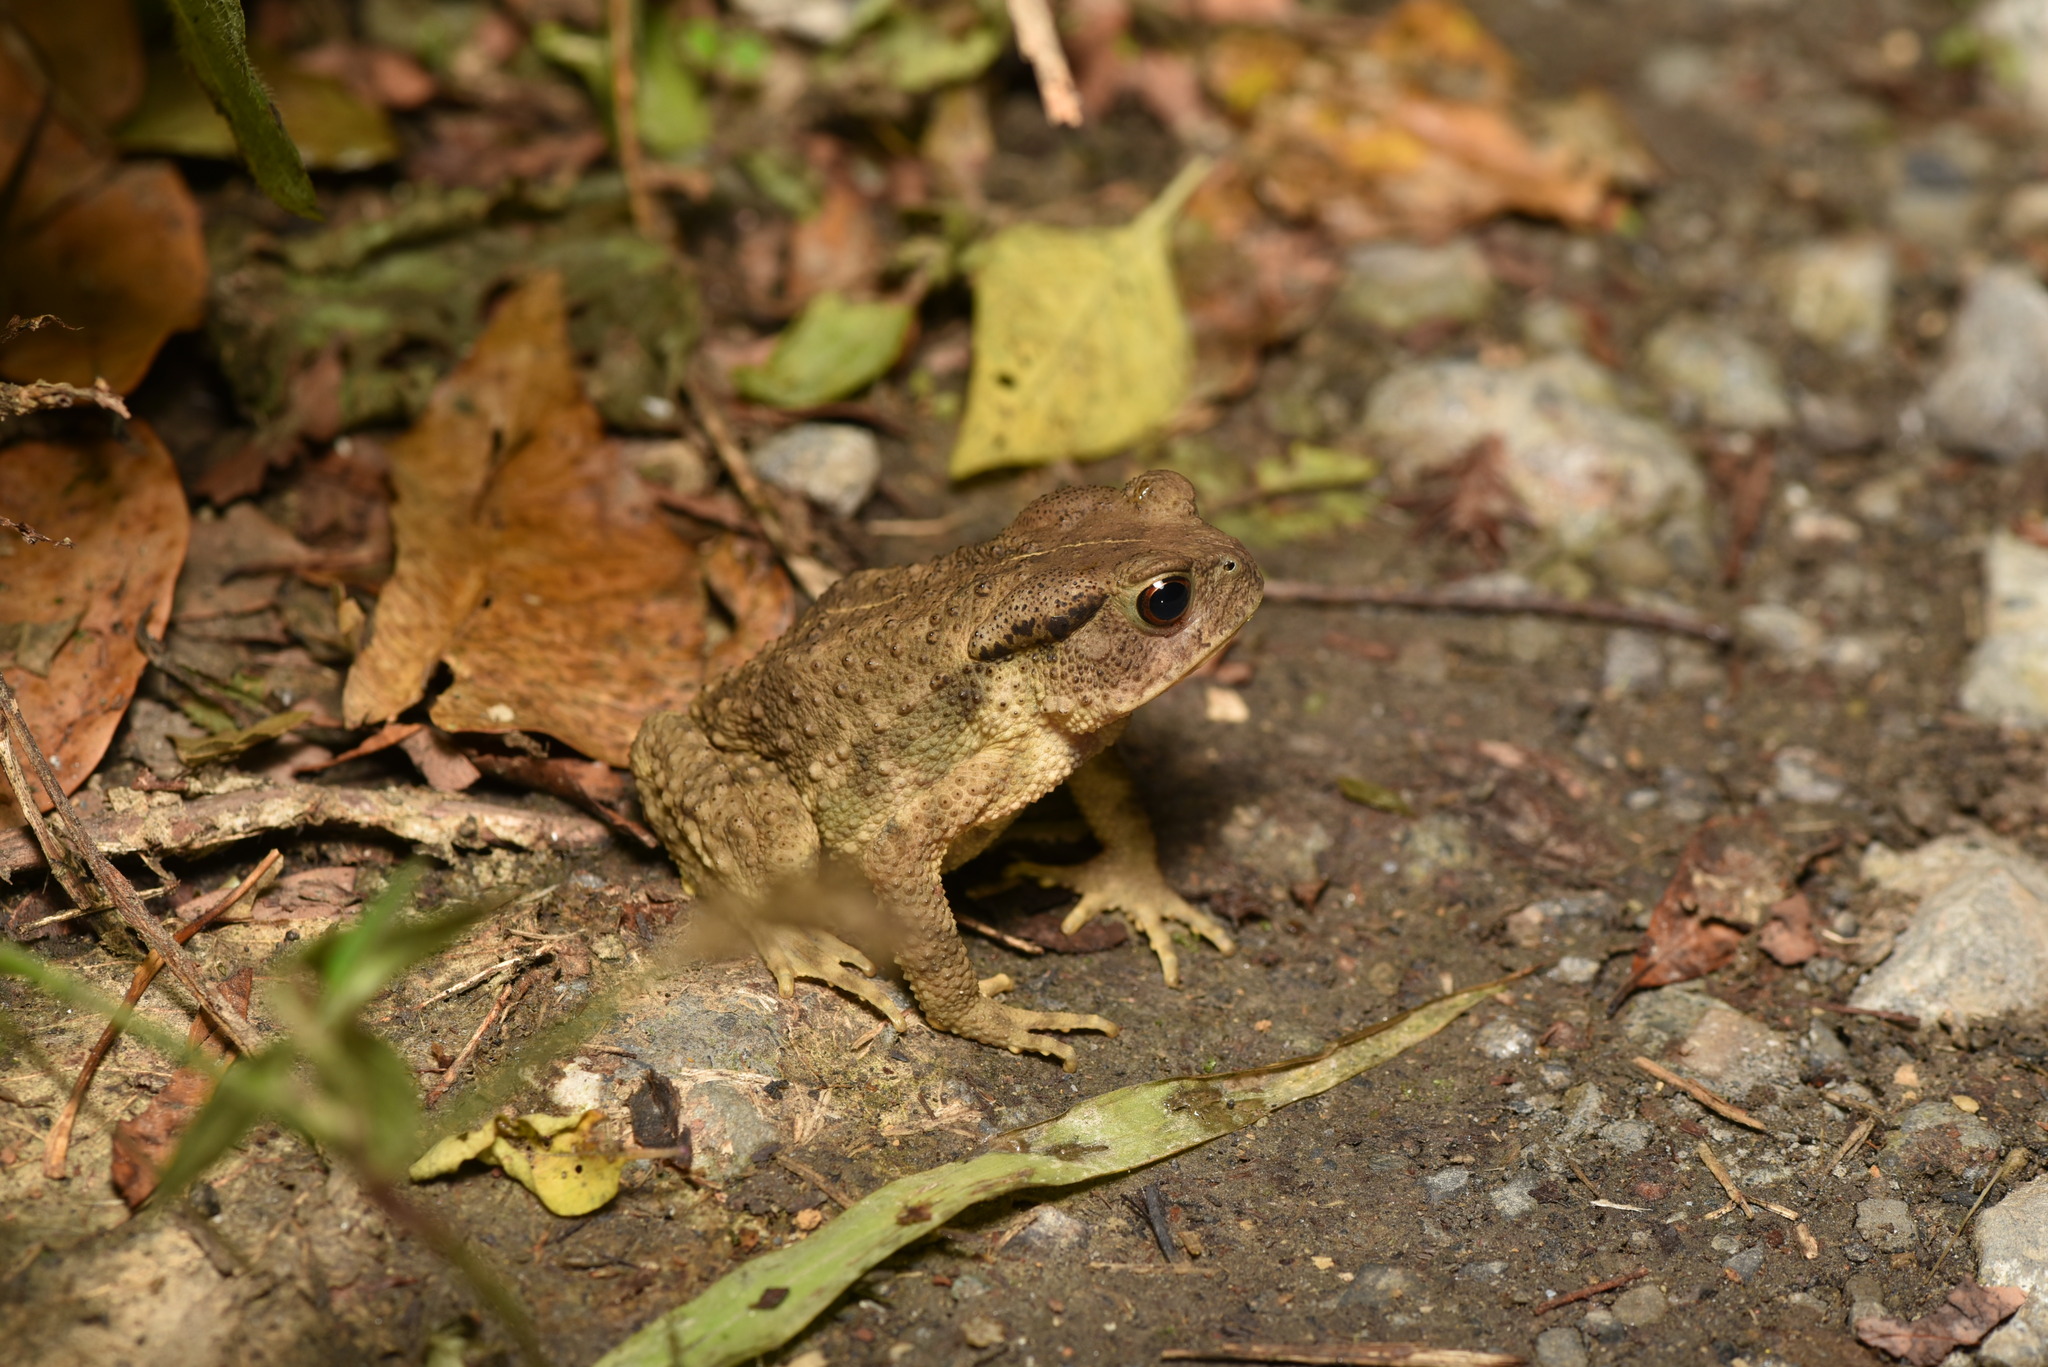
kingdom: Animalia
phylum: Chordata
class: Amphibia
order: Anura
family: Bufonidae
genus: Bufo
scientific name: Bufo bankorensis
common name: Bankor toad
